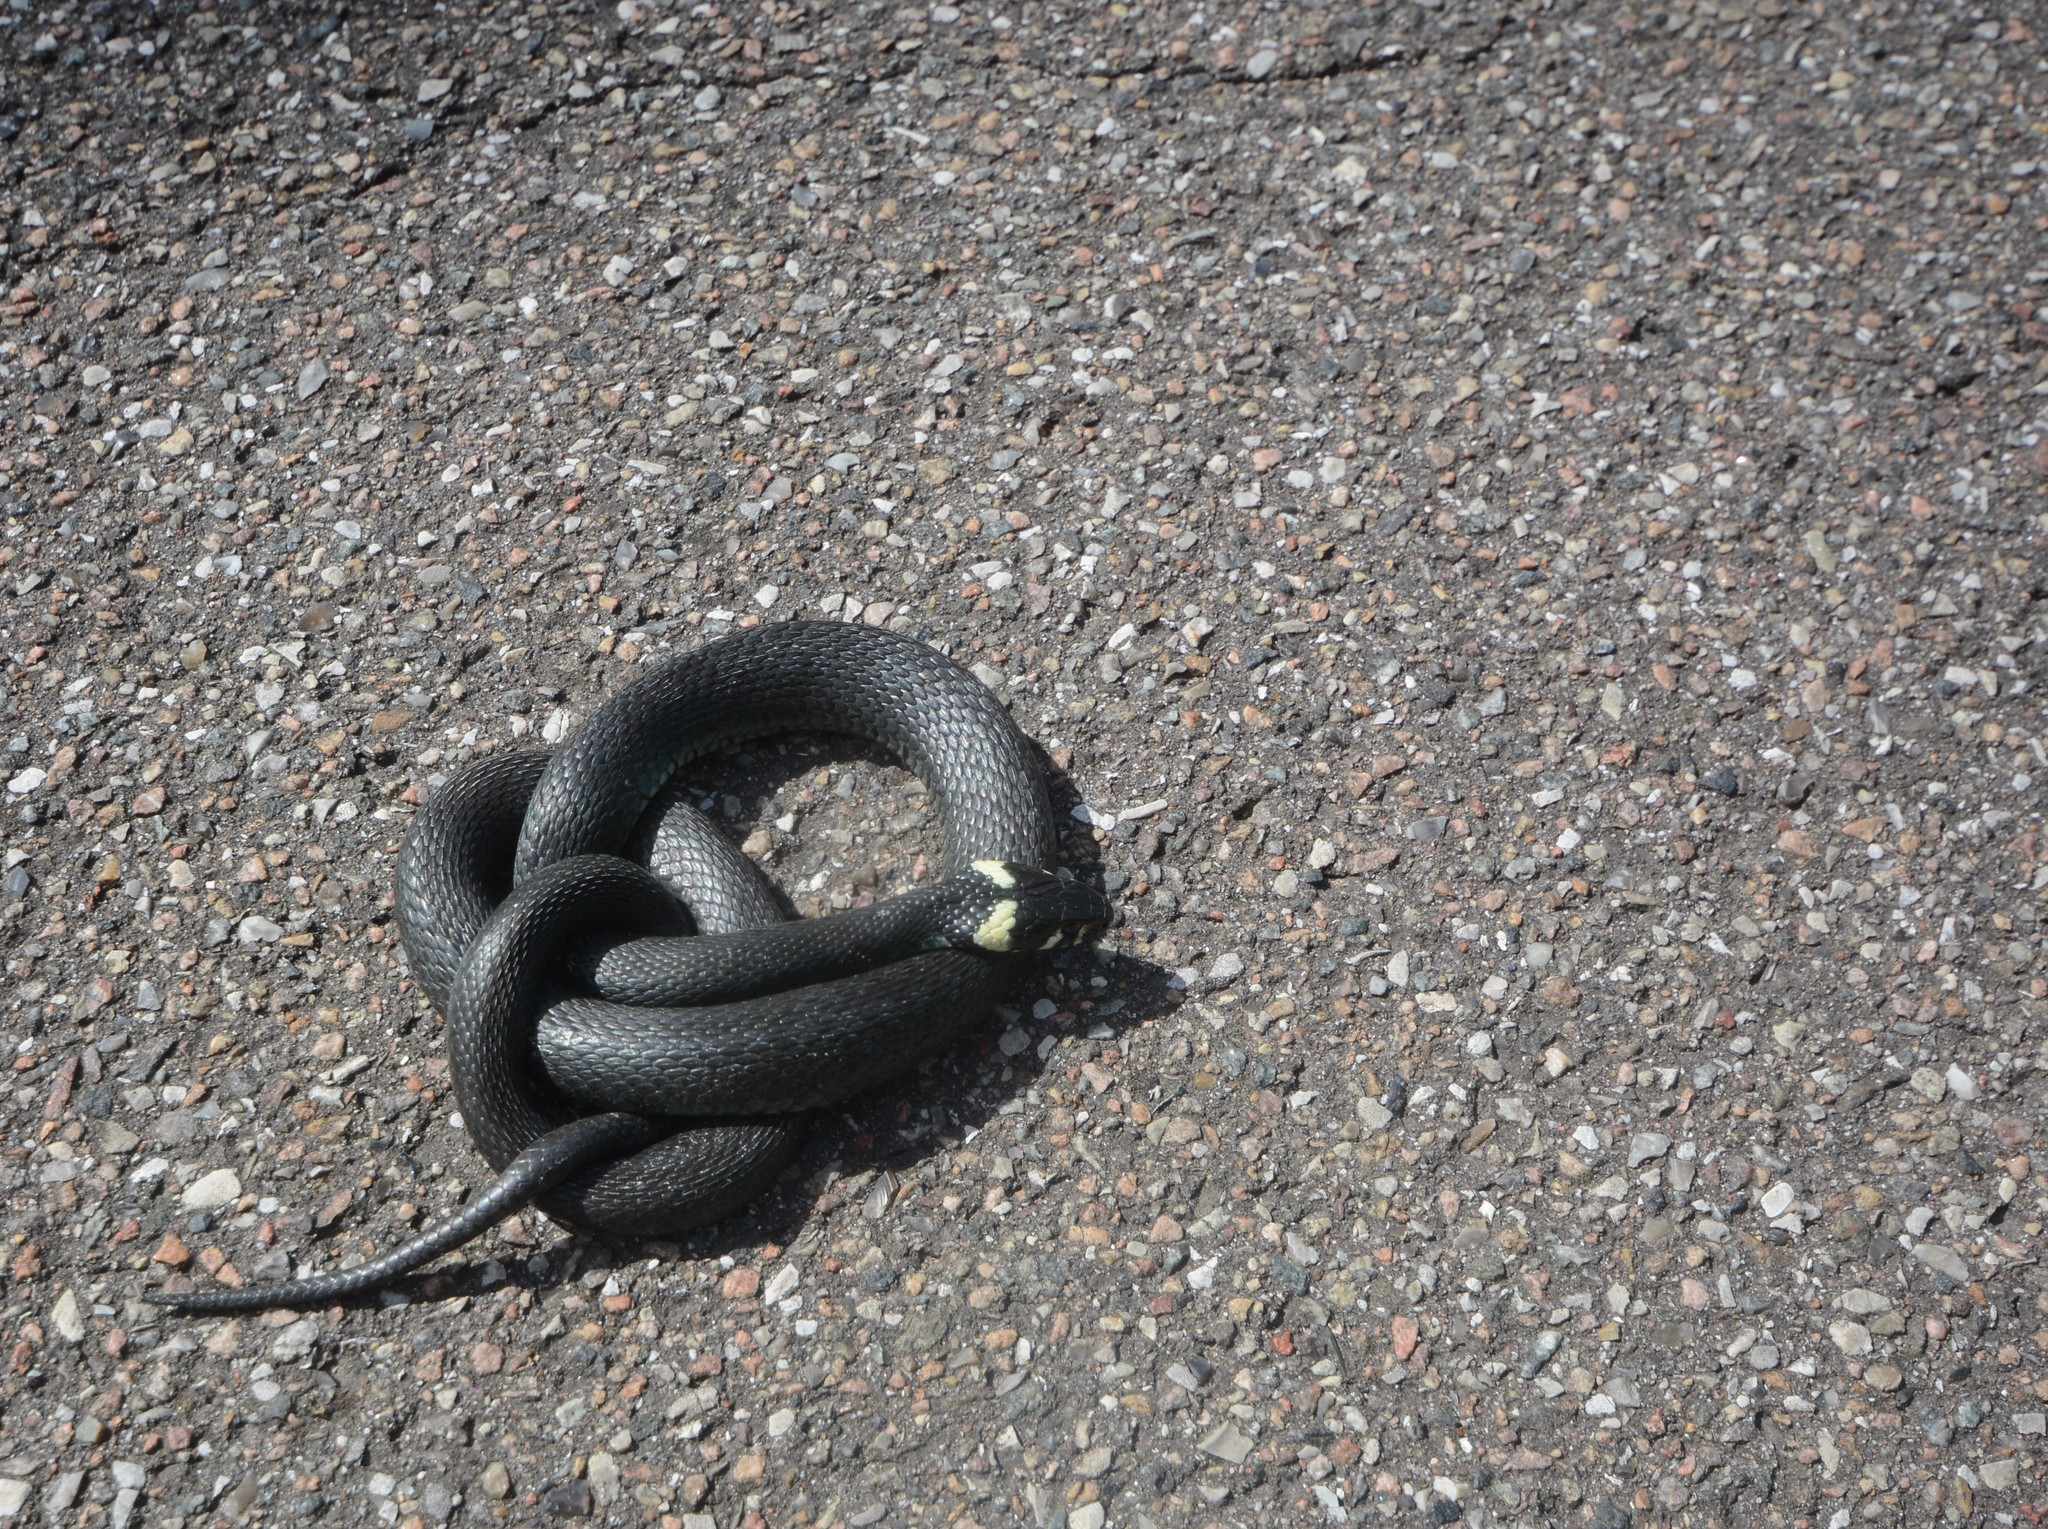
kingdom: Animalia
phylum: Chordata
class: Squamata
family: Colubridae
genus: Natrix
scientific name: Natrix natrix
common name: Grass snake
